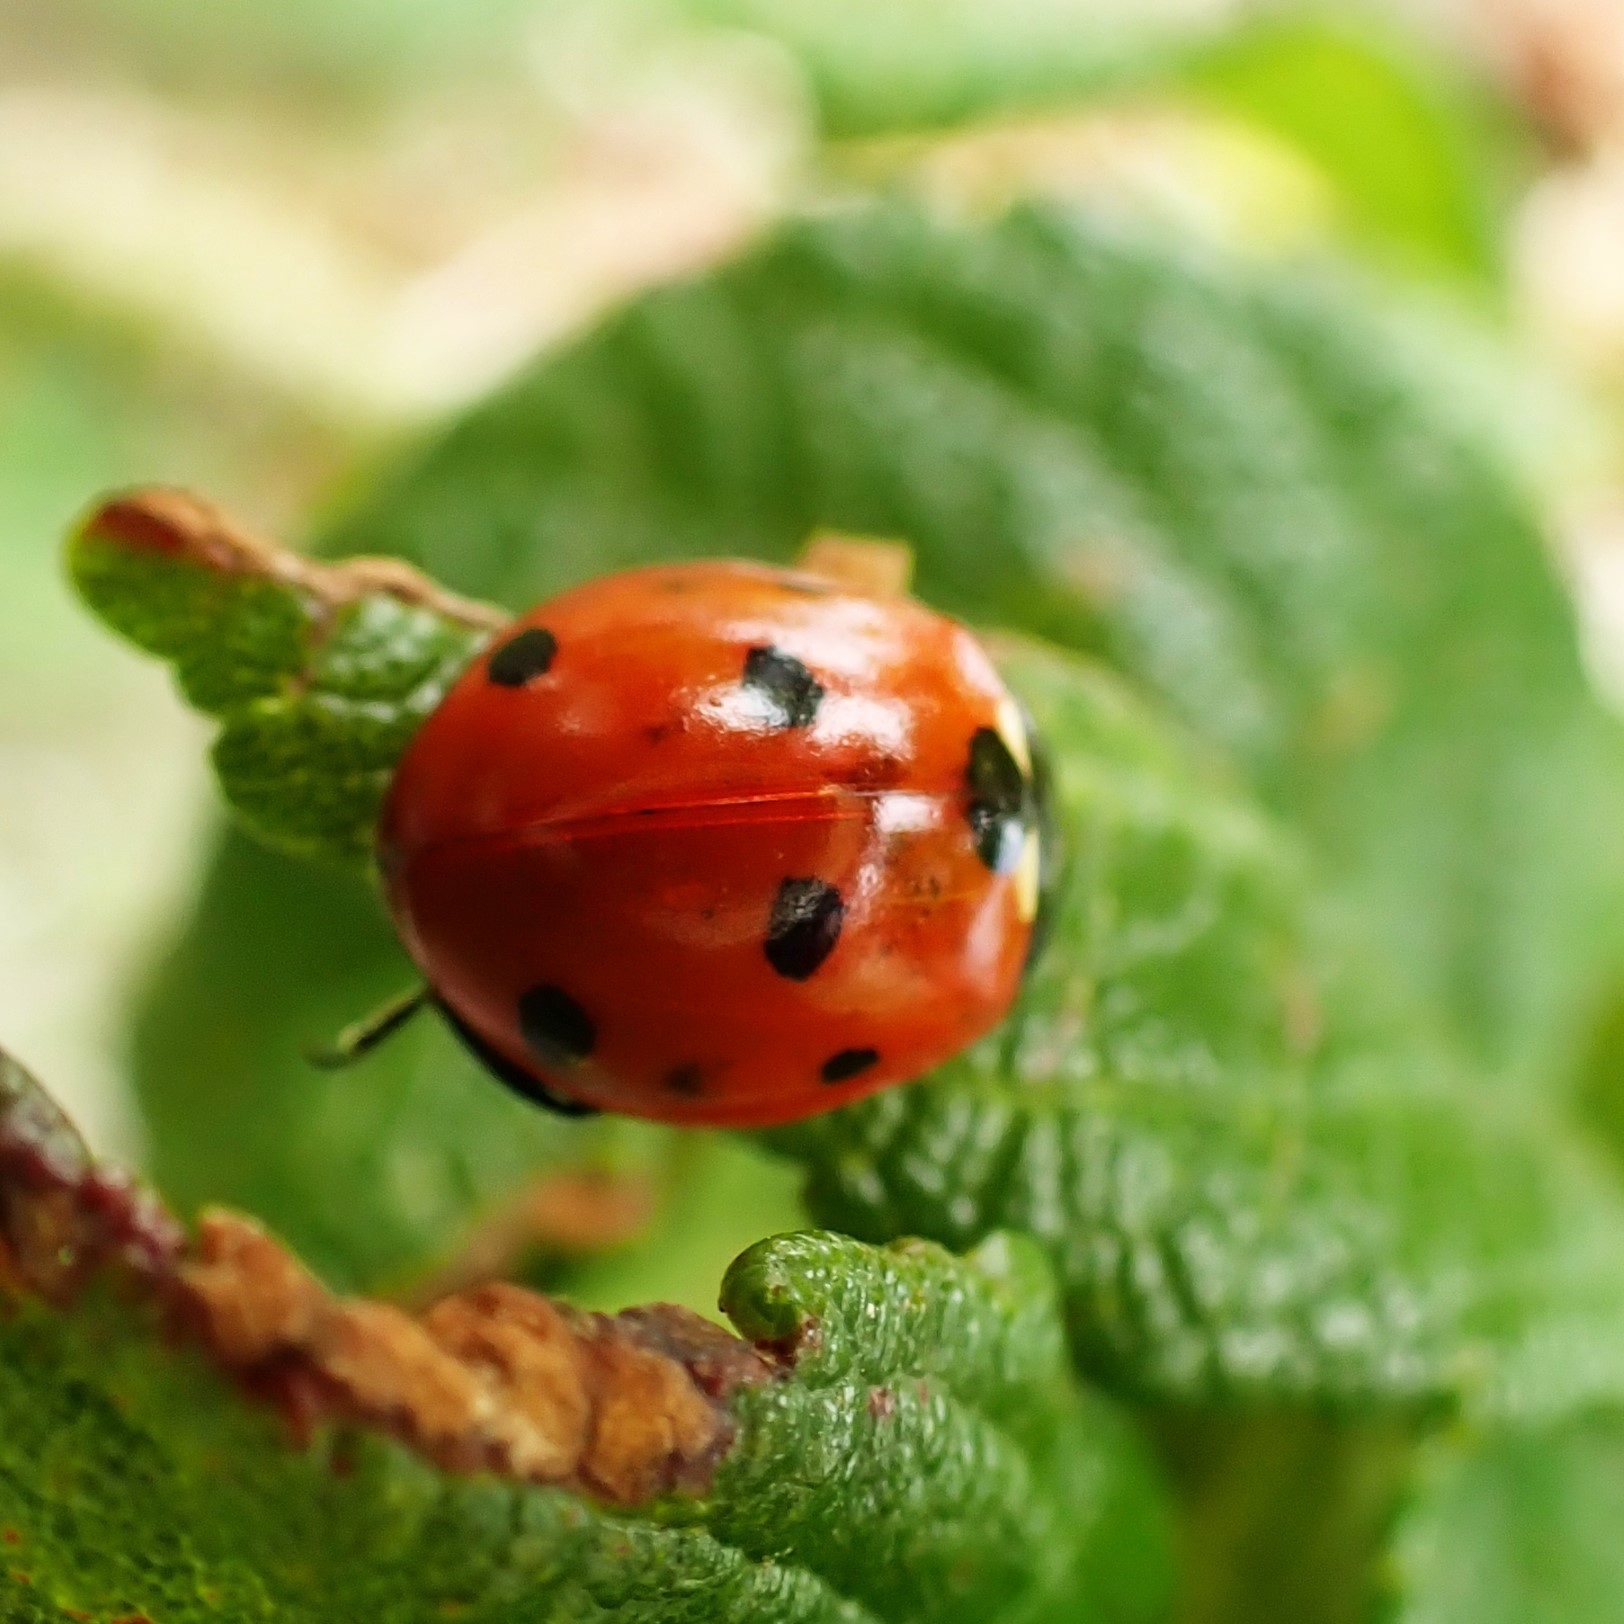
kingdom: Animalia
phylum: Arthropoda
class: Insecta
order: Coleoptera
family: Coccinellidae
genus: Coccinella
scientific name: Coccinella septempunctata
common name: Sevenspotted lady beetle
